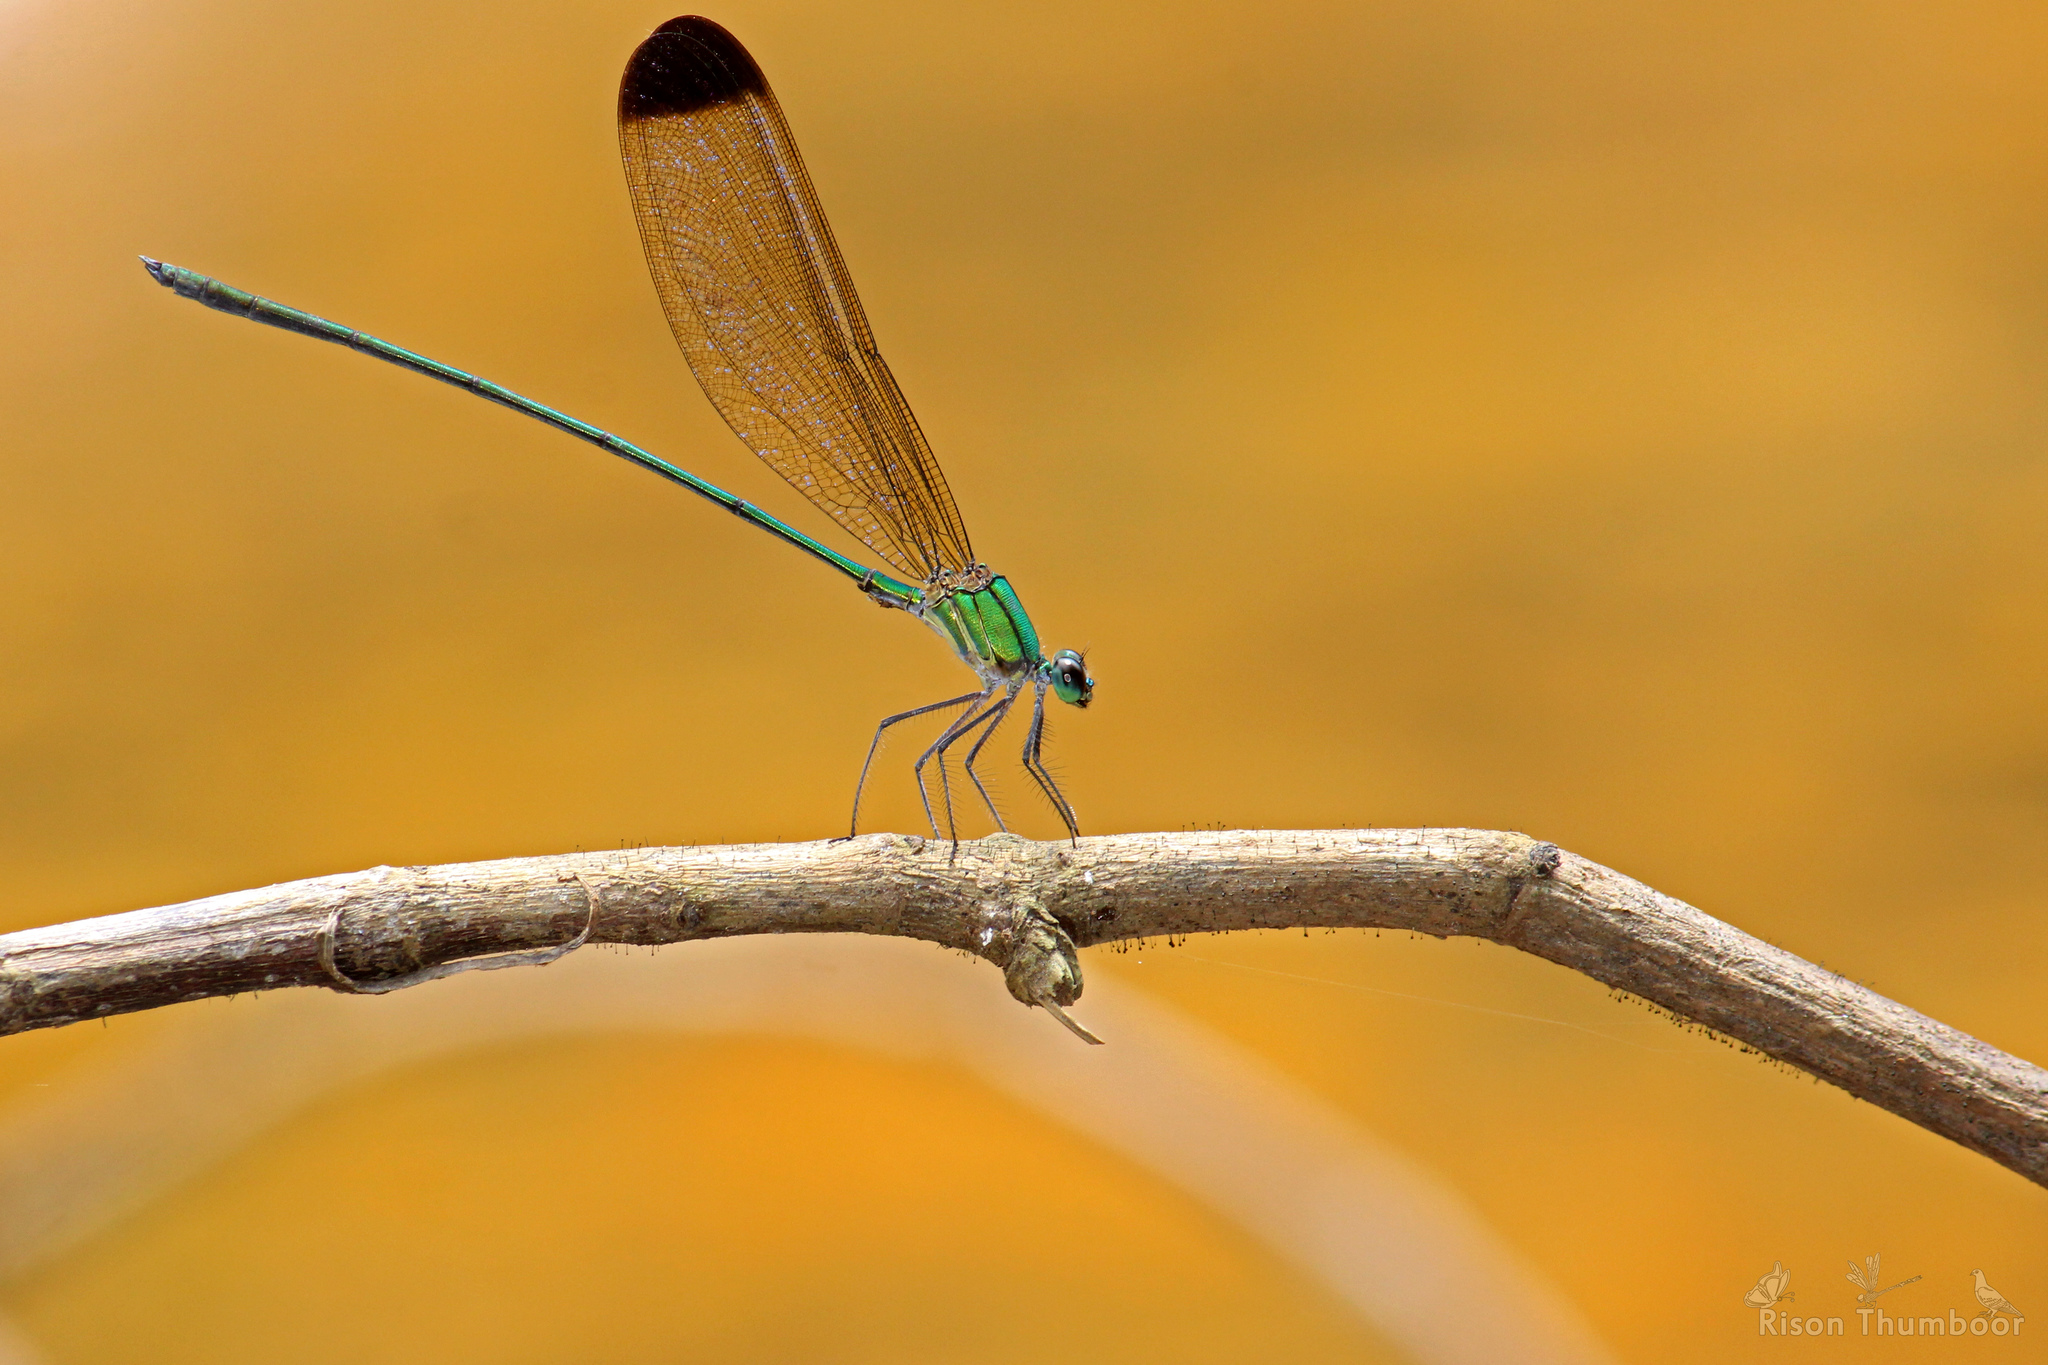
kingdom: Animalia
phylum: Arthropoda
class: Insecta
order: Odonata
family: Calopterygidae
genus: Vestalis
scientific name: Vestalis apicalis
